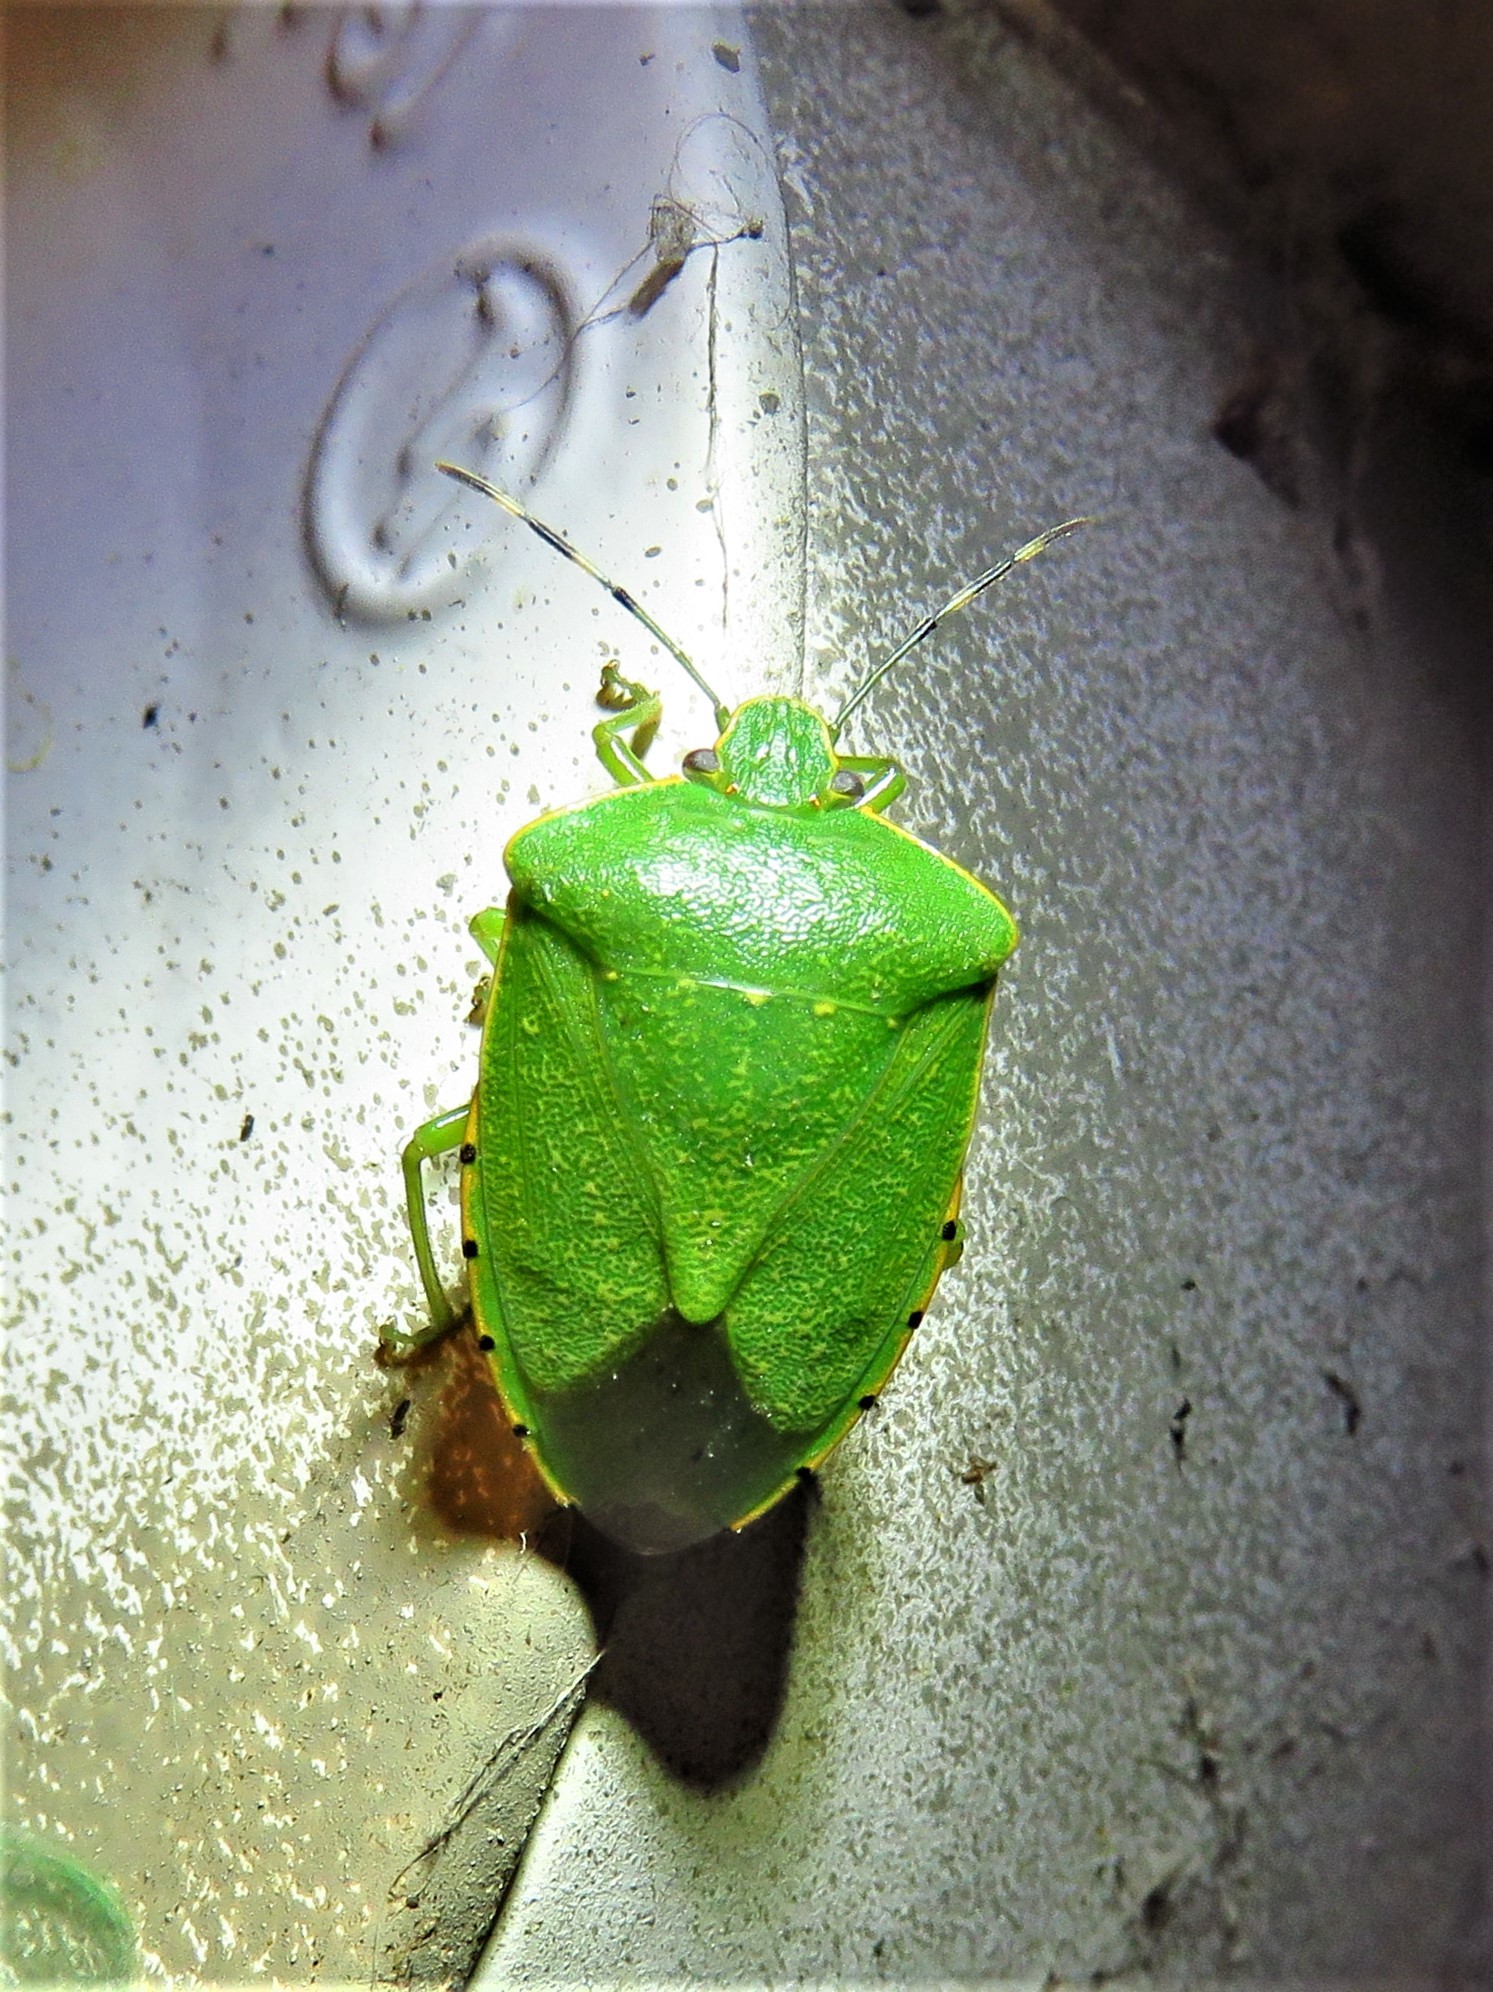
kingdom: Animalia
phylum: Arthropoda
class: Insecta
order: Hemiptera
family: Pentatomidae
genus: Chinavia
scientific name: Chinavia hilaris
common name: Green stink bug
